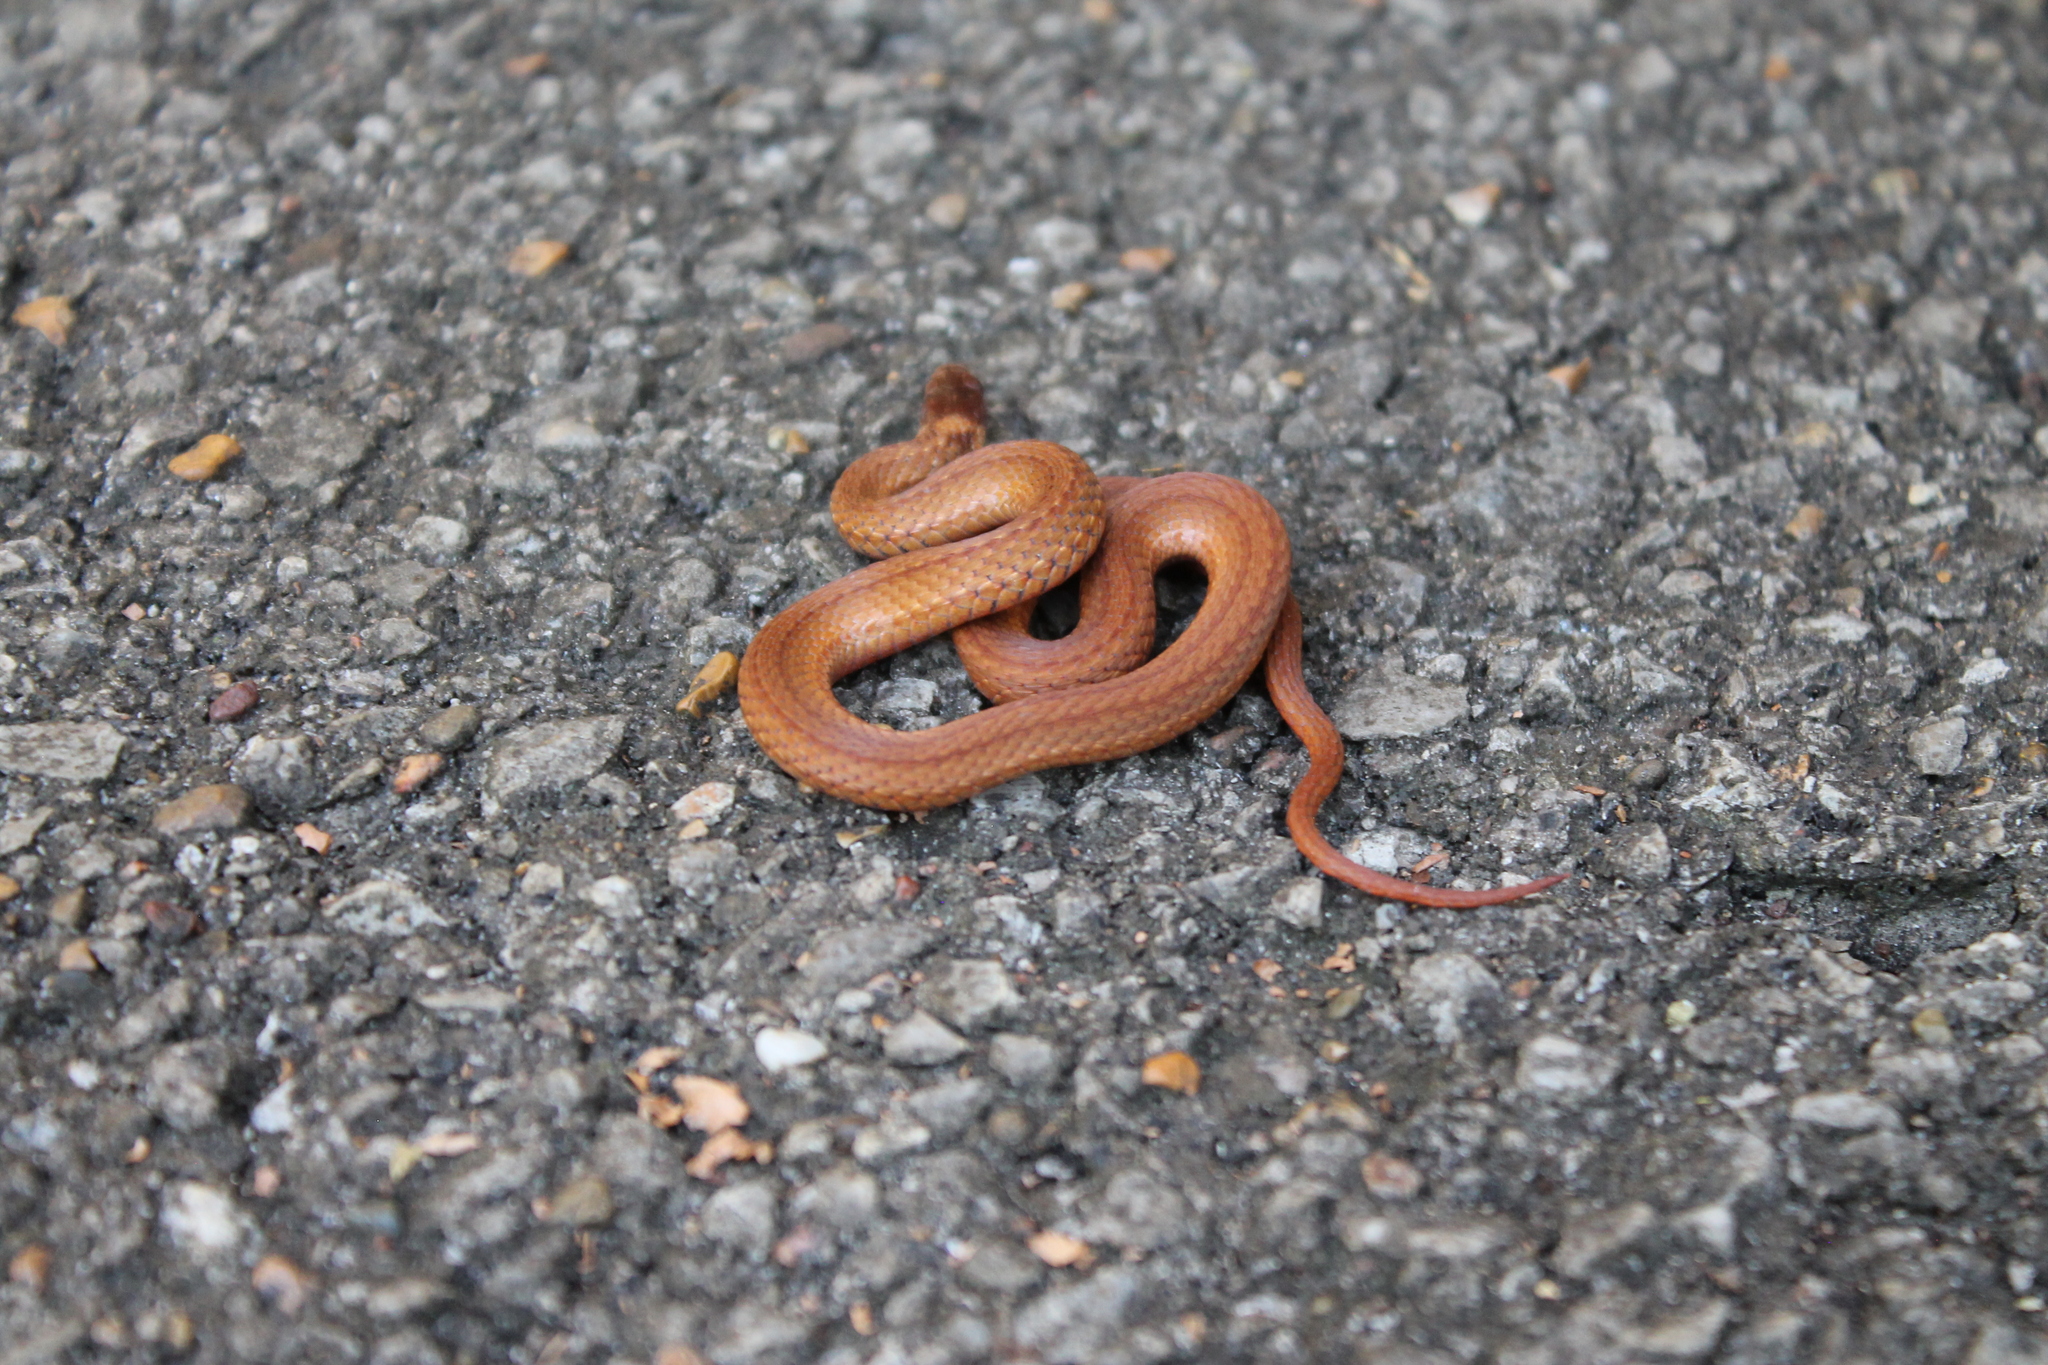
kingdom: Animalia
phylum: Chordata
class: Squamata
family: Colubridae
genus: Storeria
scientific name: Storeria occipitomaculata
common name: Redbelly snake
